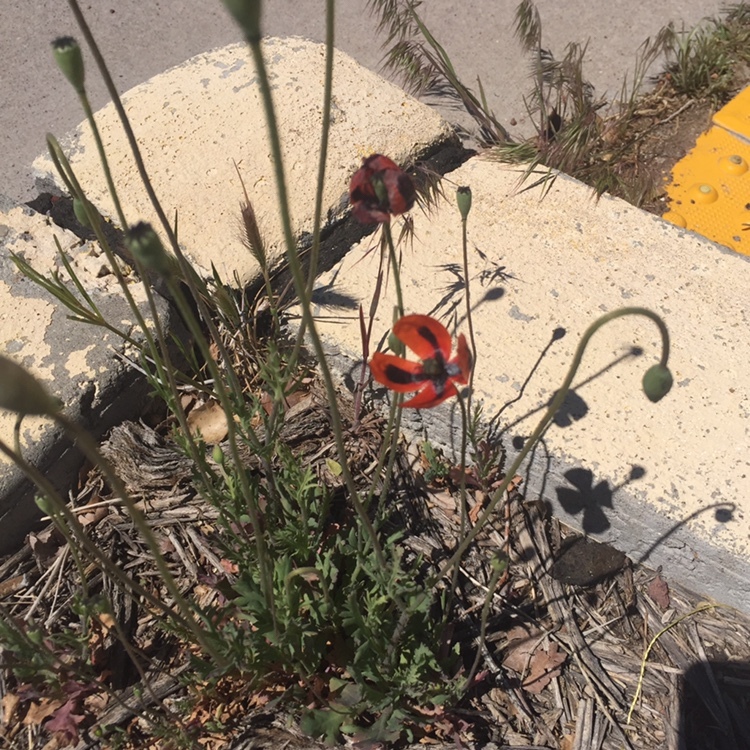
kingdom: Plantae
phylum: Tracheophyta
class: Magnoliopsida
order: Ranunculales
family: Papaveraceae
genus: Papaver
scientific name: Papaver dubium
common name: Long-headed poppy
